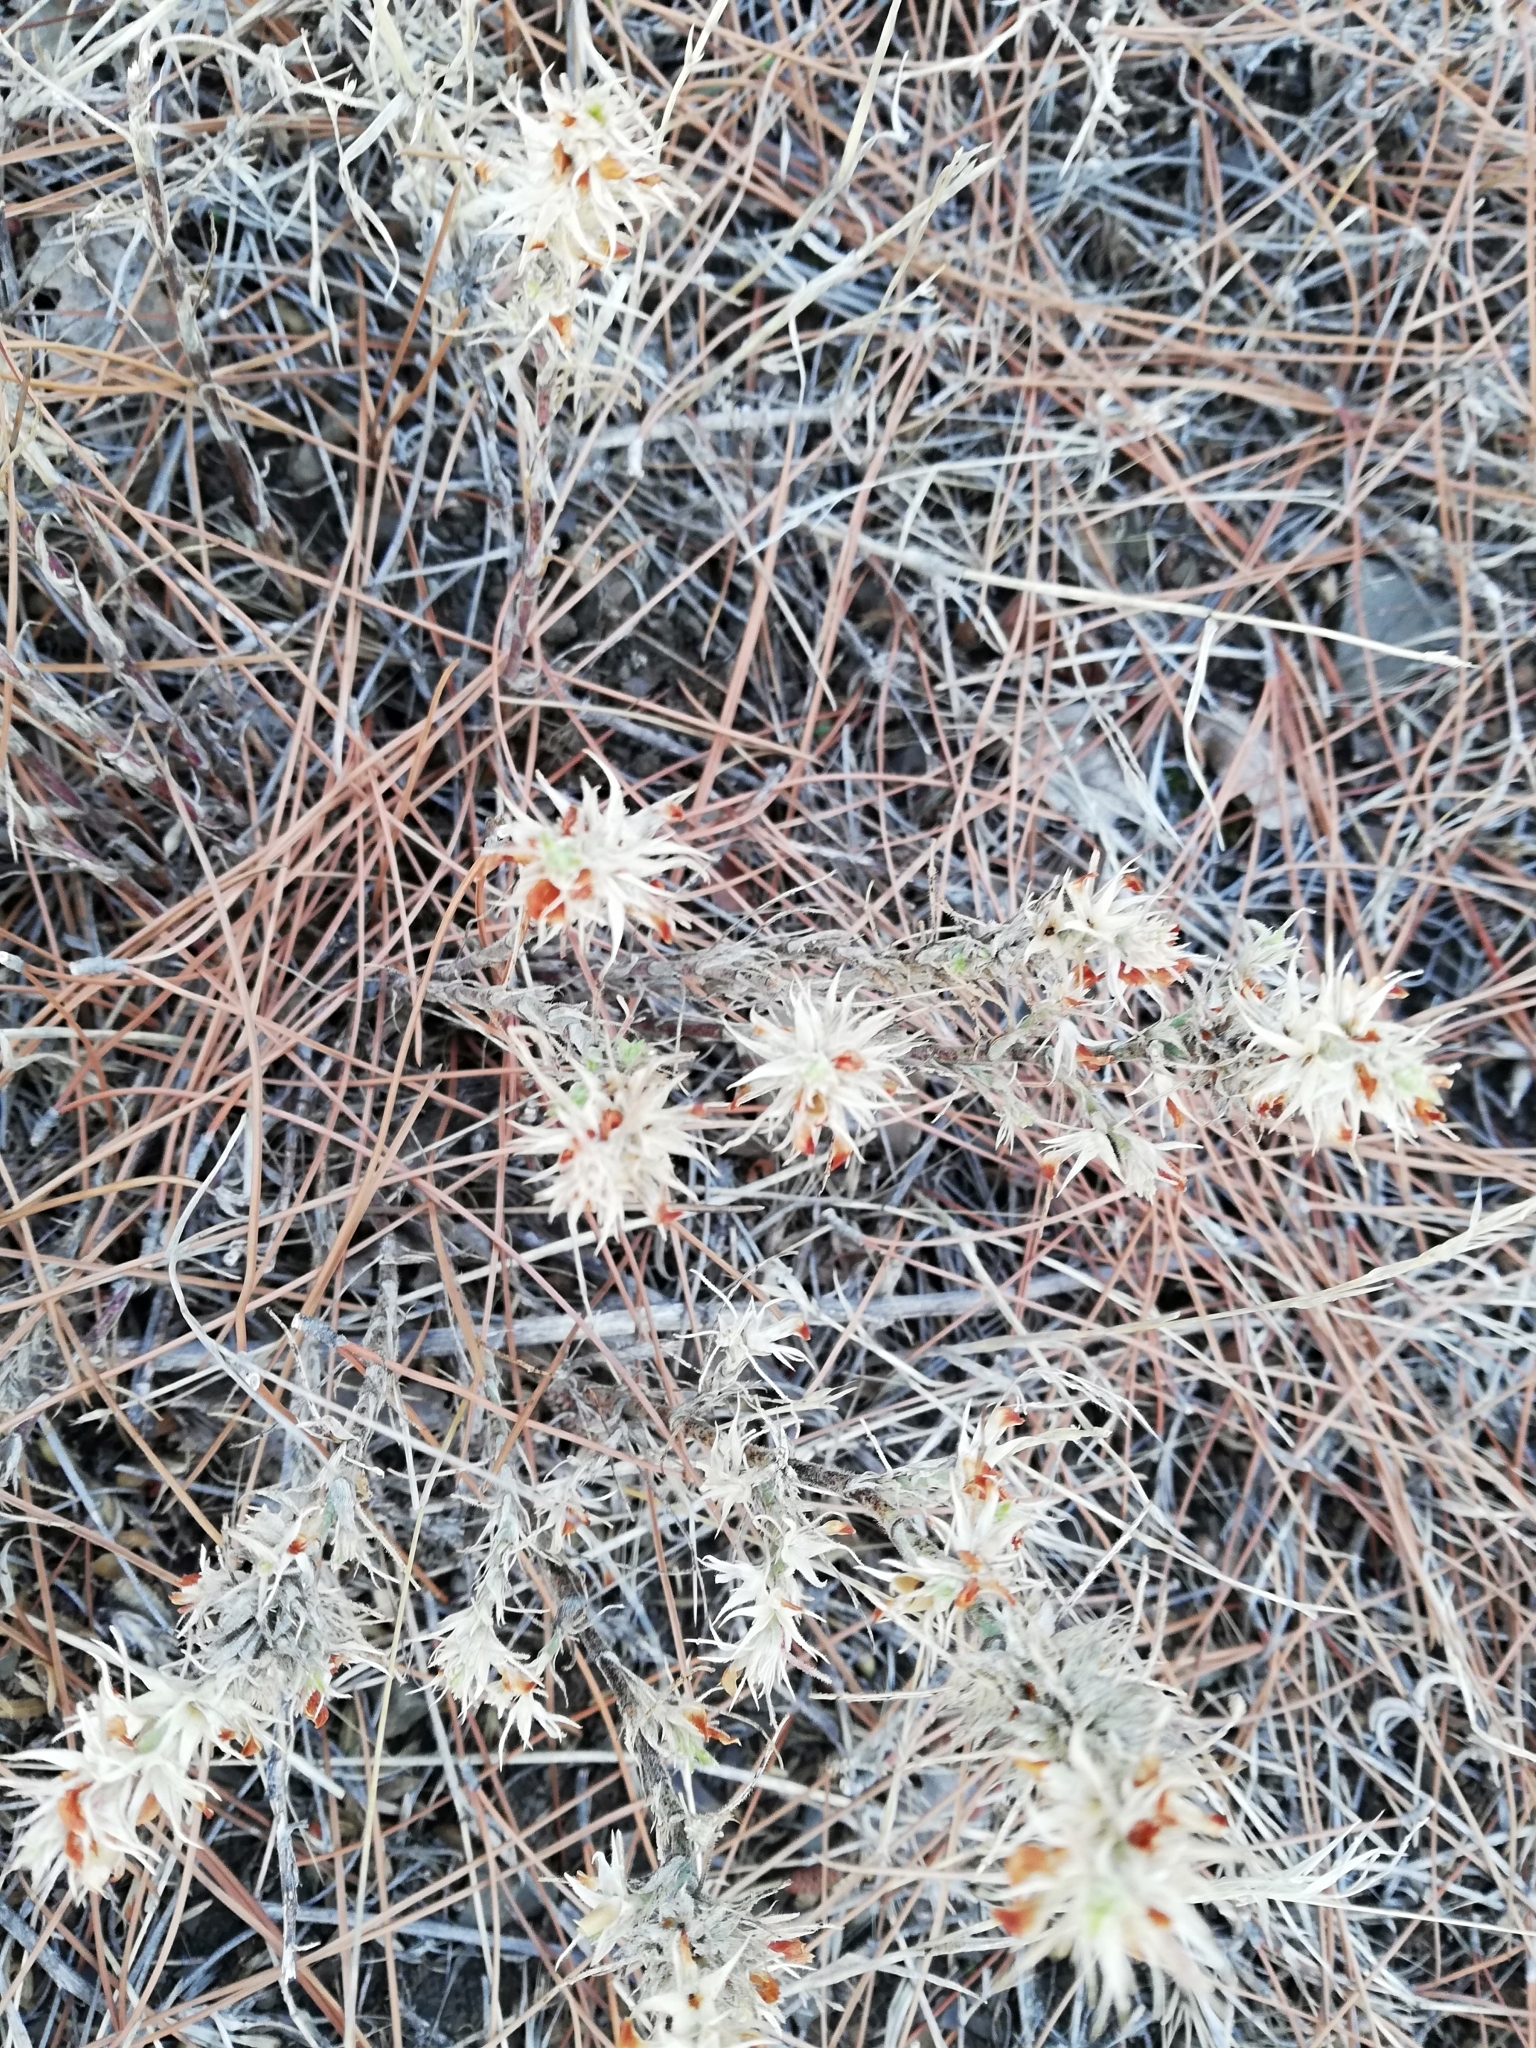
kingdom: Plantae
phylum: Tracheophyta
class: Magnoliopsida
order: Fabales
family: Fabaceae
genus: Ononis
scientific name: Ononis pusilla
